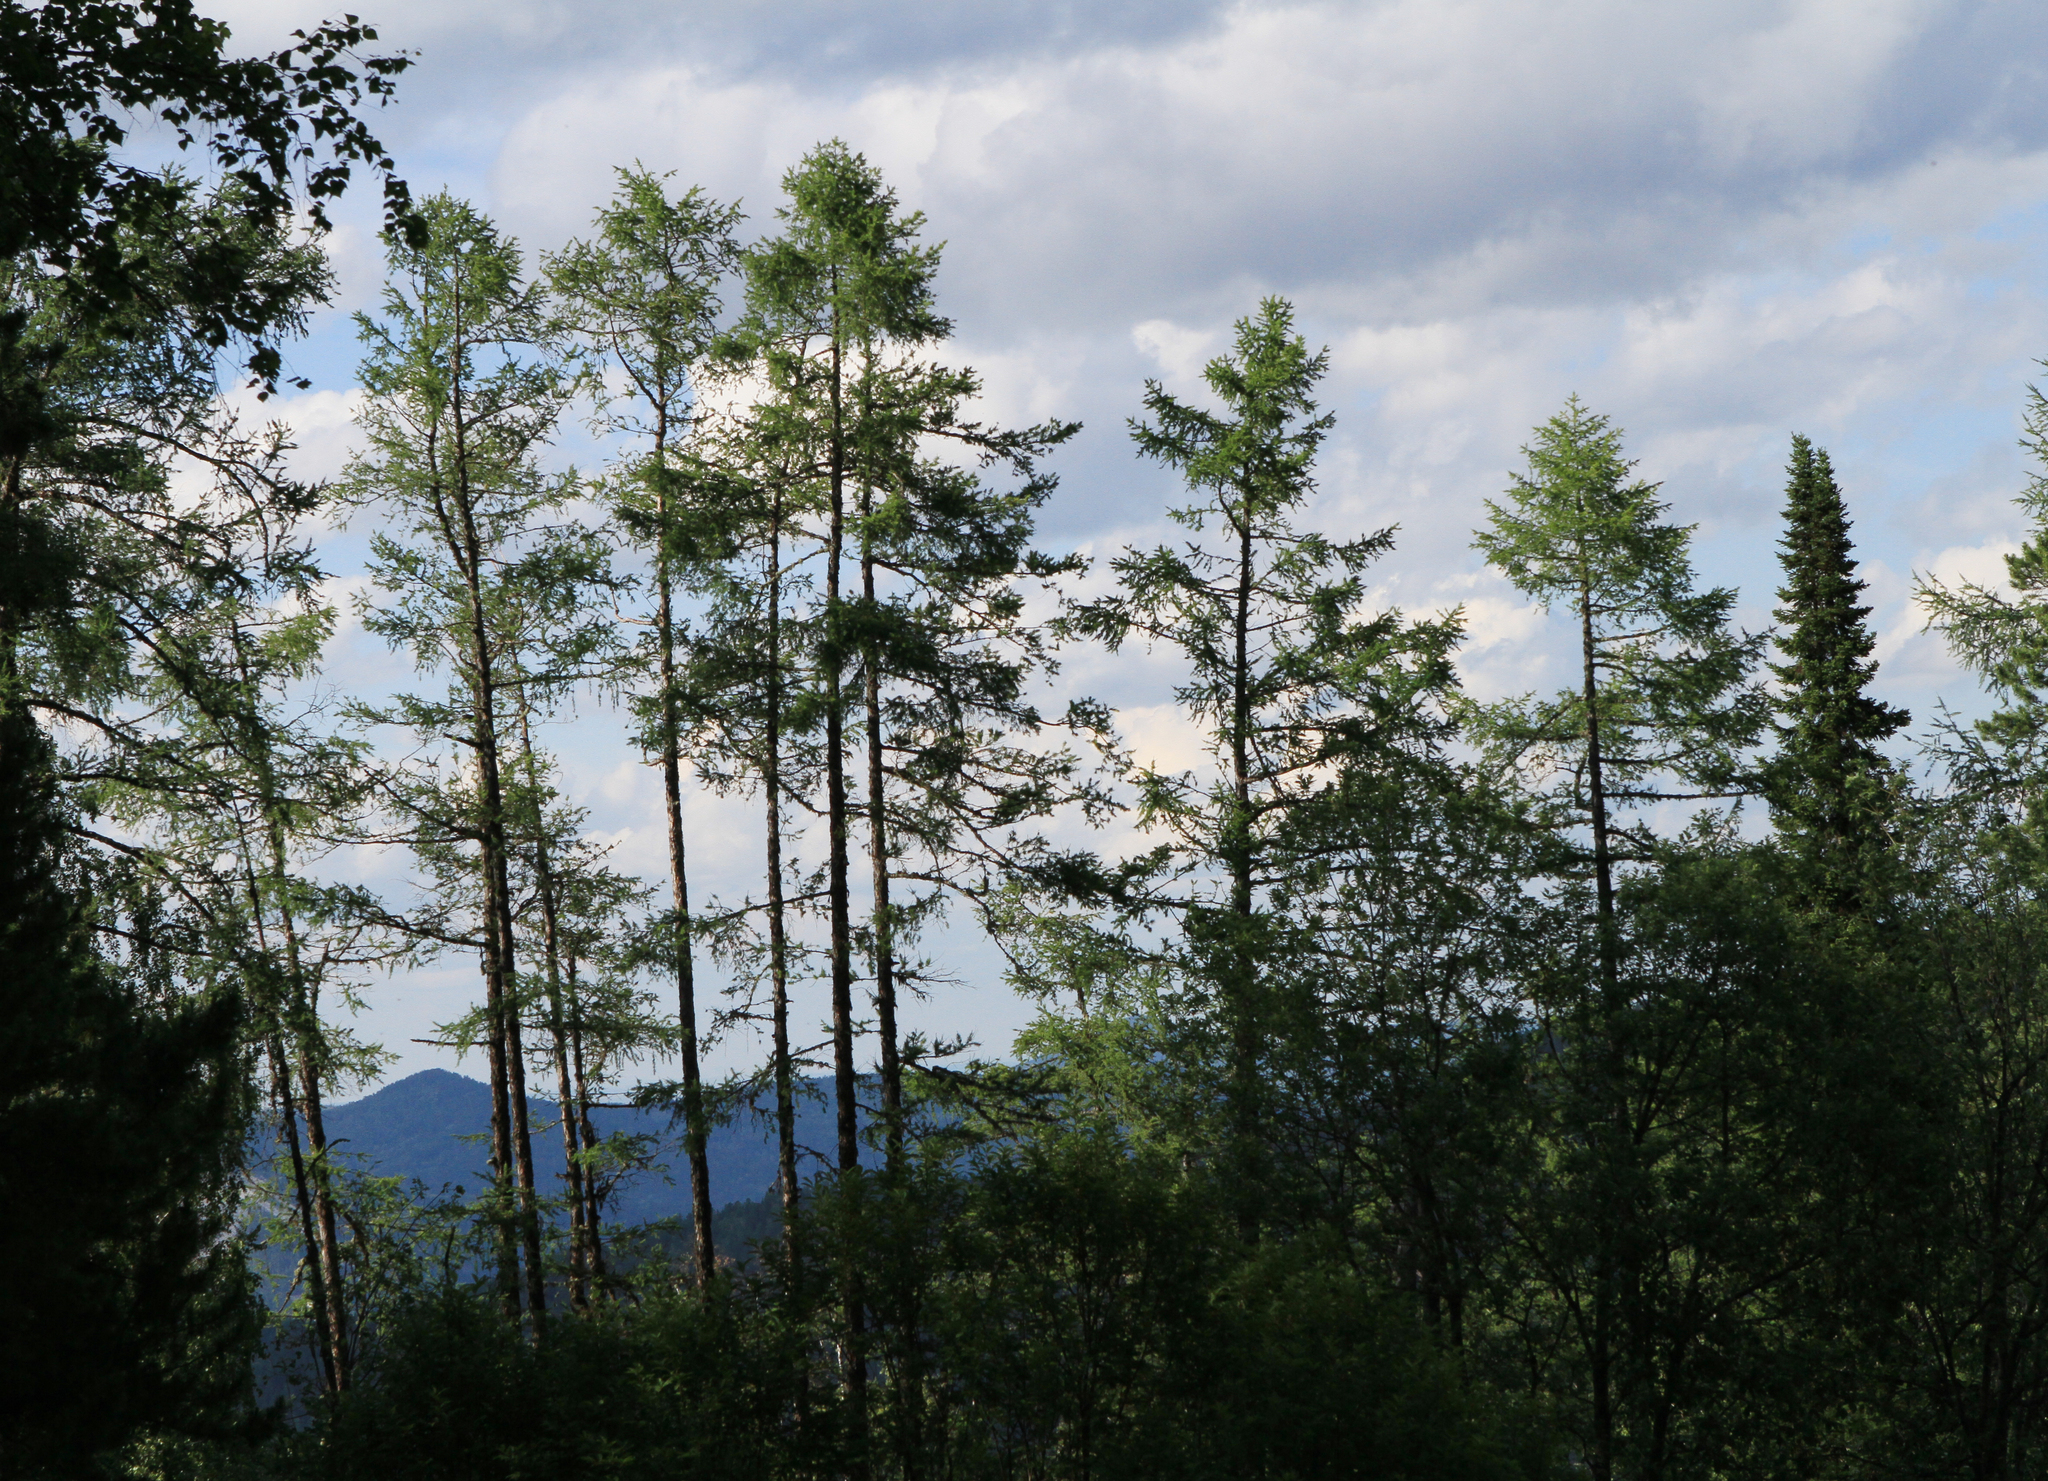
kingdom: Plantae
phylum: Tracheophyta
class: Pinopsida
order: Pinales
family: Pinaceae
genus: Larix
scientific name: Larix sibirica
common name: Siberian larch
